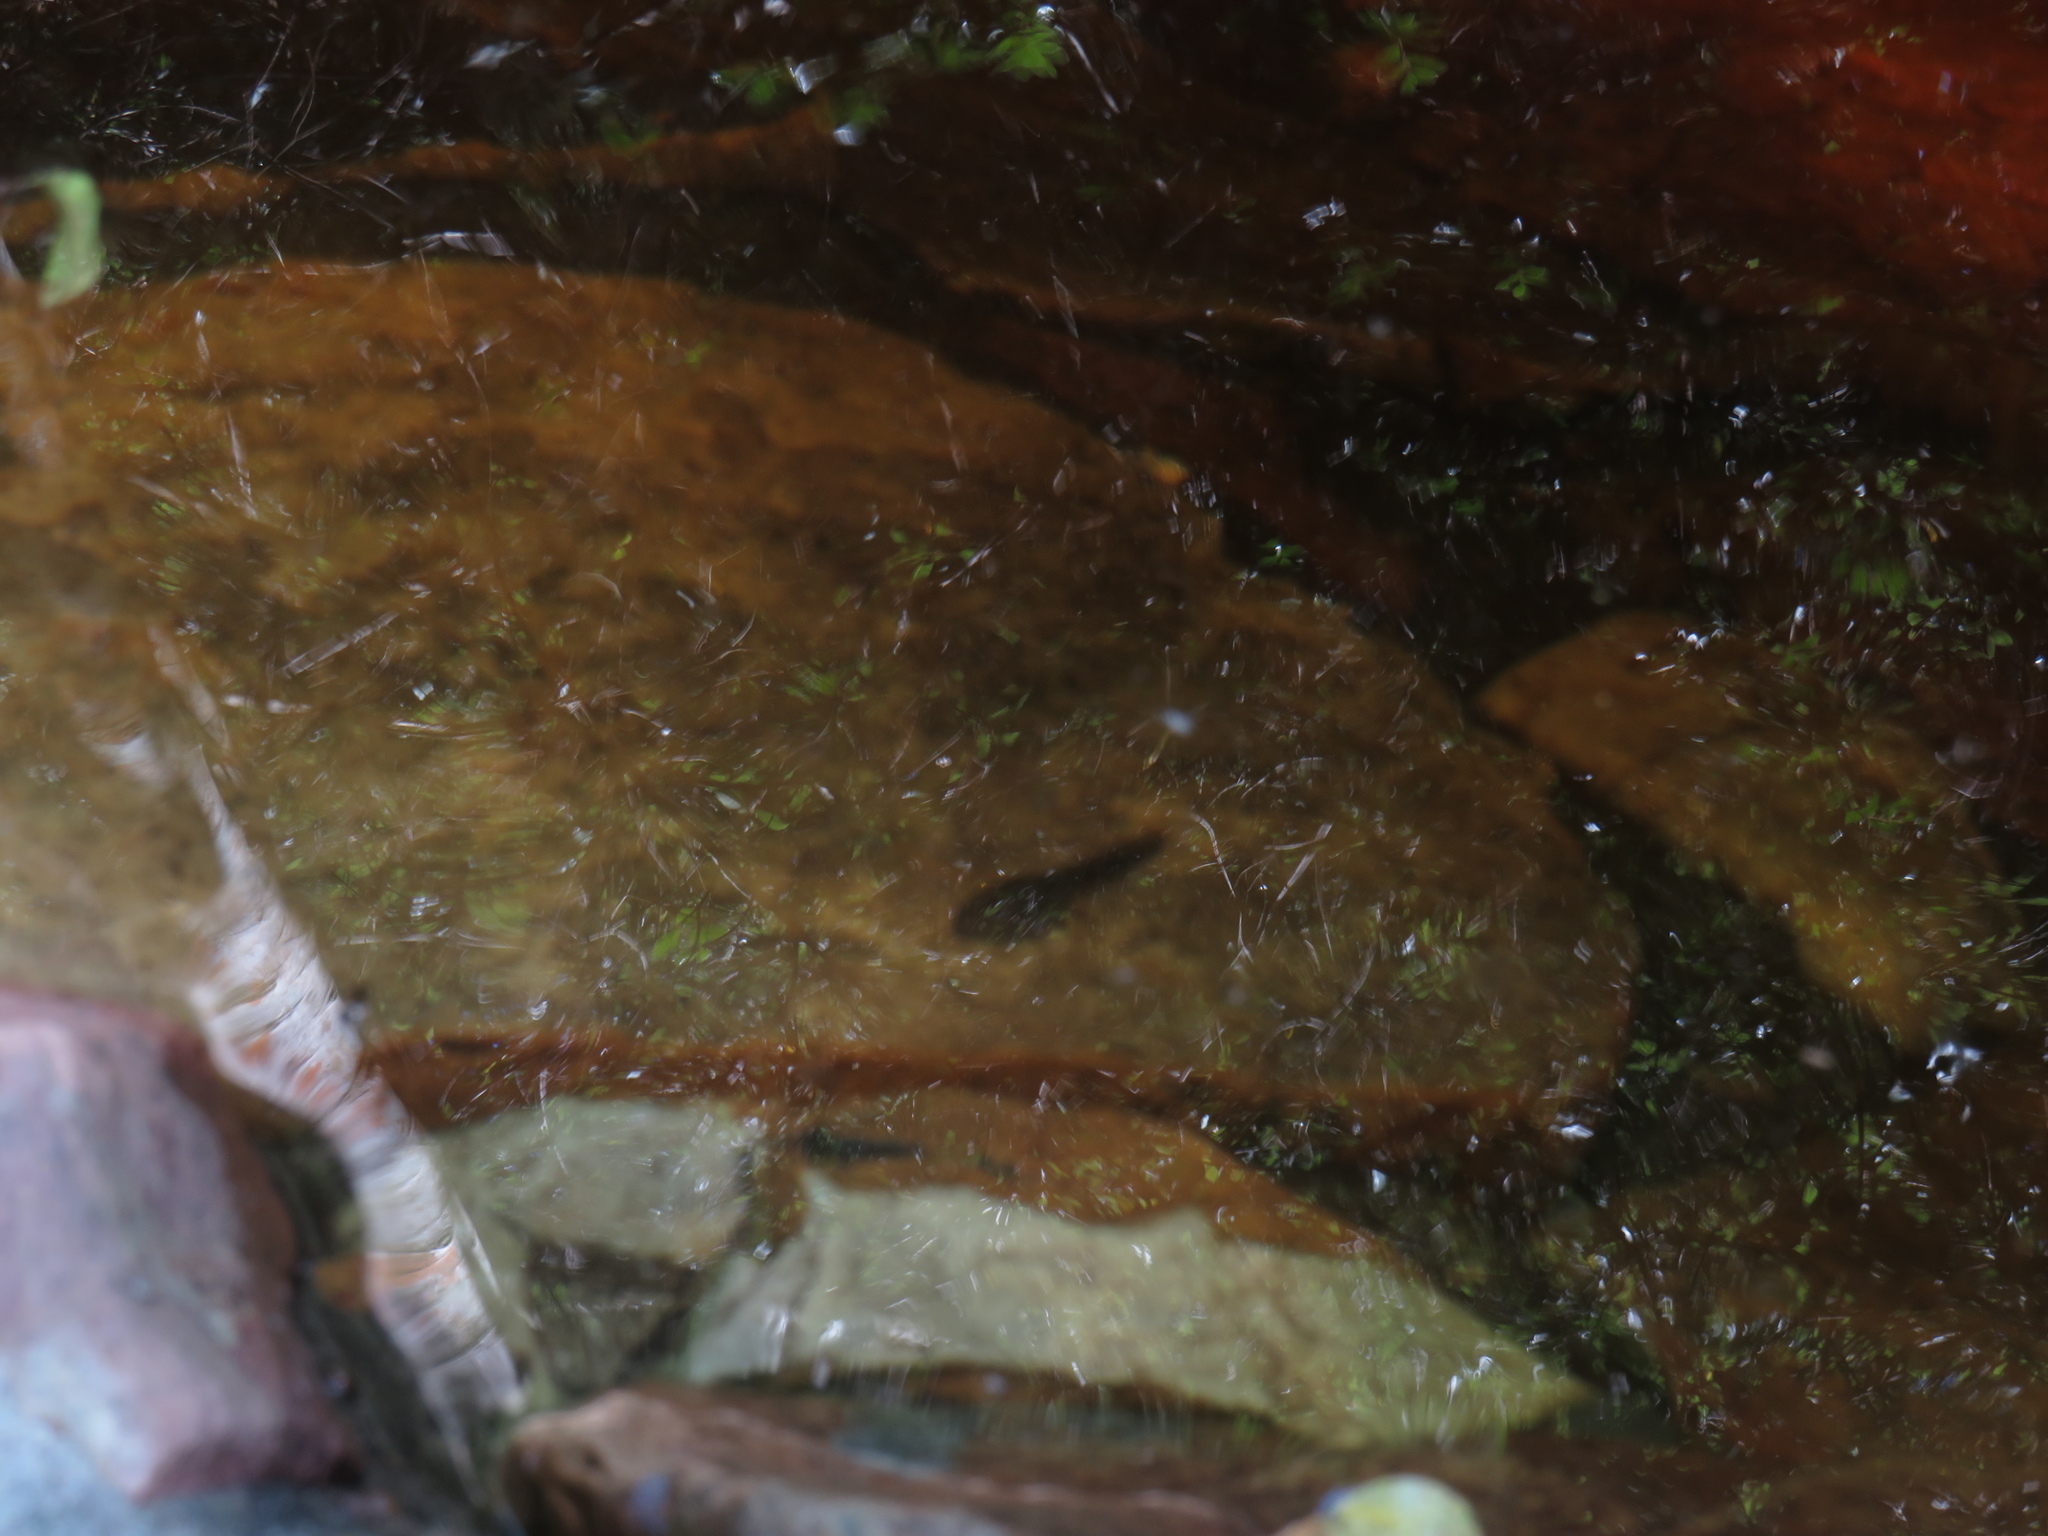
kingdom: Animalia
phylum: Chordata
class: Amphibia
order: Anura
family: Pyxicephalidae
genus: Amietia
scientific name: Amietia fuscigula
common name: Cape rana
